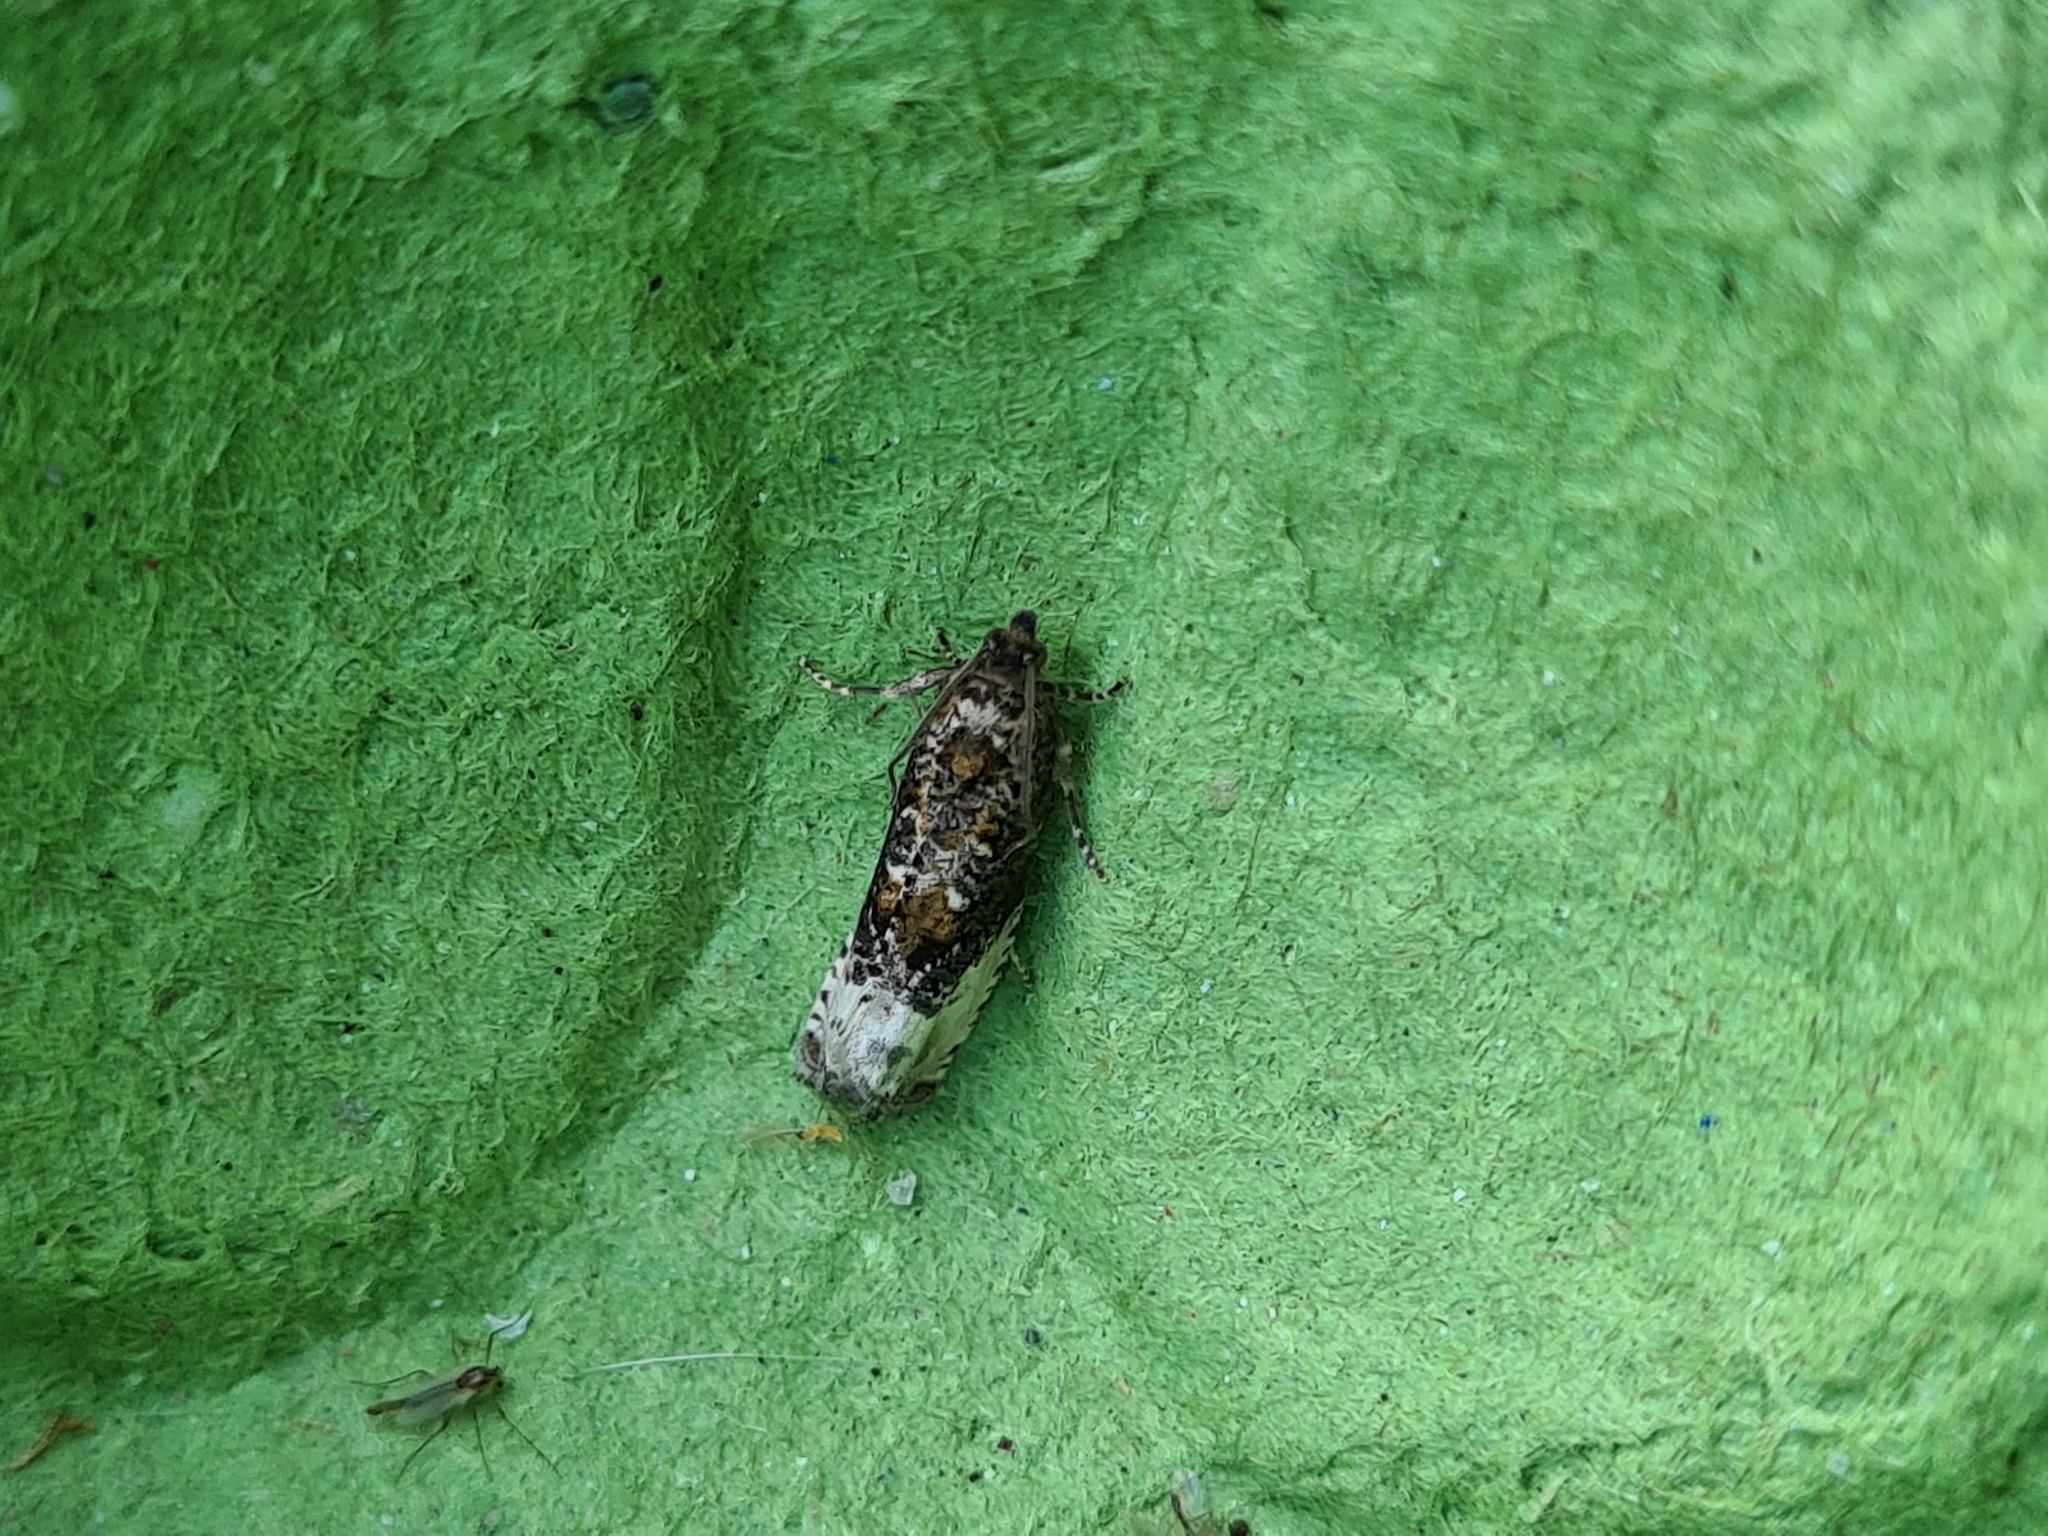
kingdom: Animalia
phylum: Arthropoda
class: Insecta
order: Lepidoptera
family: Tortricidae
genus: Hedya
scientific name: Hedya nubiferana
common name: Marbled orchard tortrix
